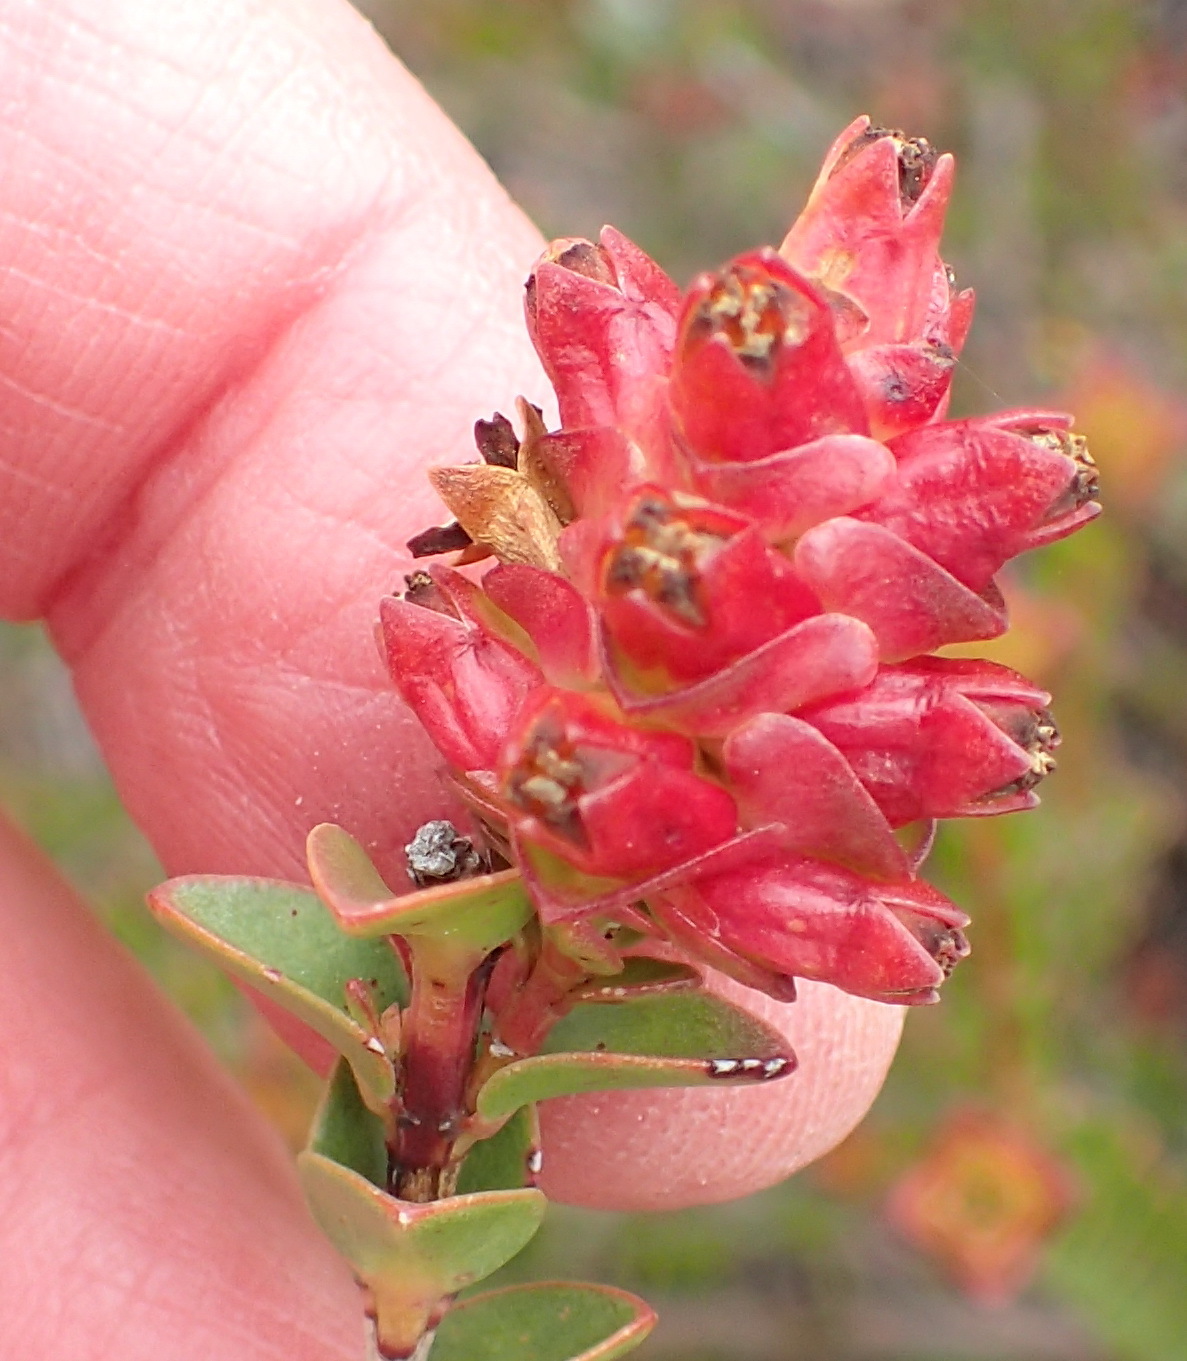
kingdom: Plantae
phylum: Tracheophyta
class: Magnoliopsida
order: Myrtales
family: Penaeaceae
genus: Penaea
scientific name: Penaea cneorum
